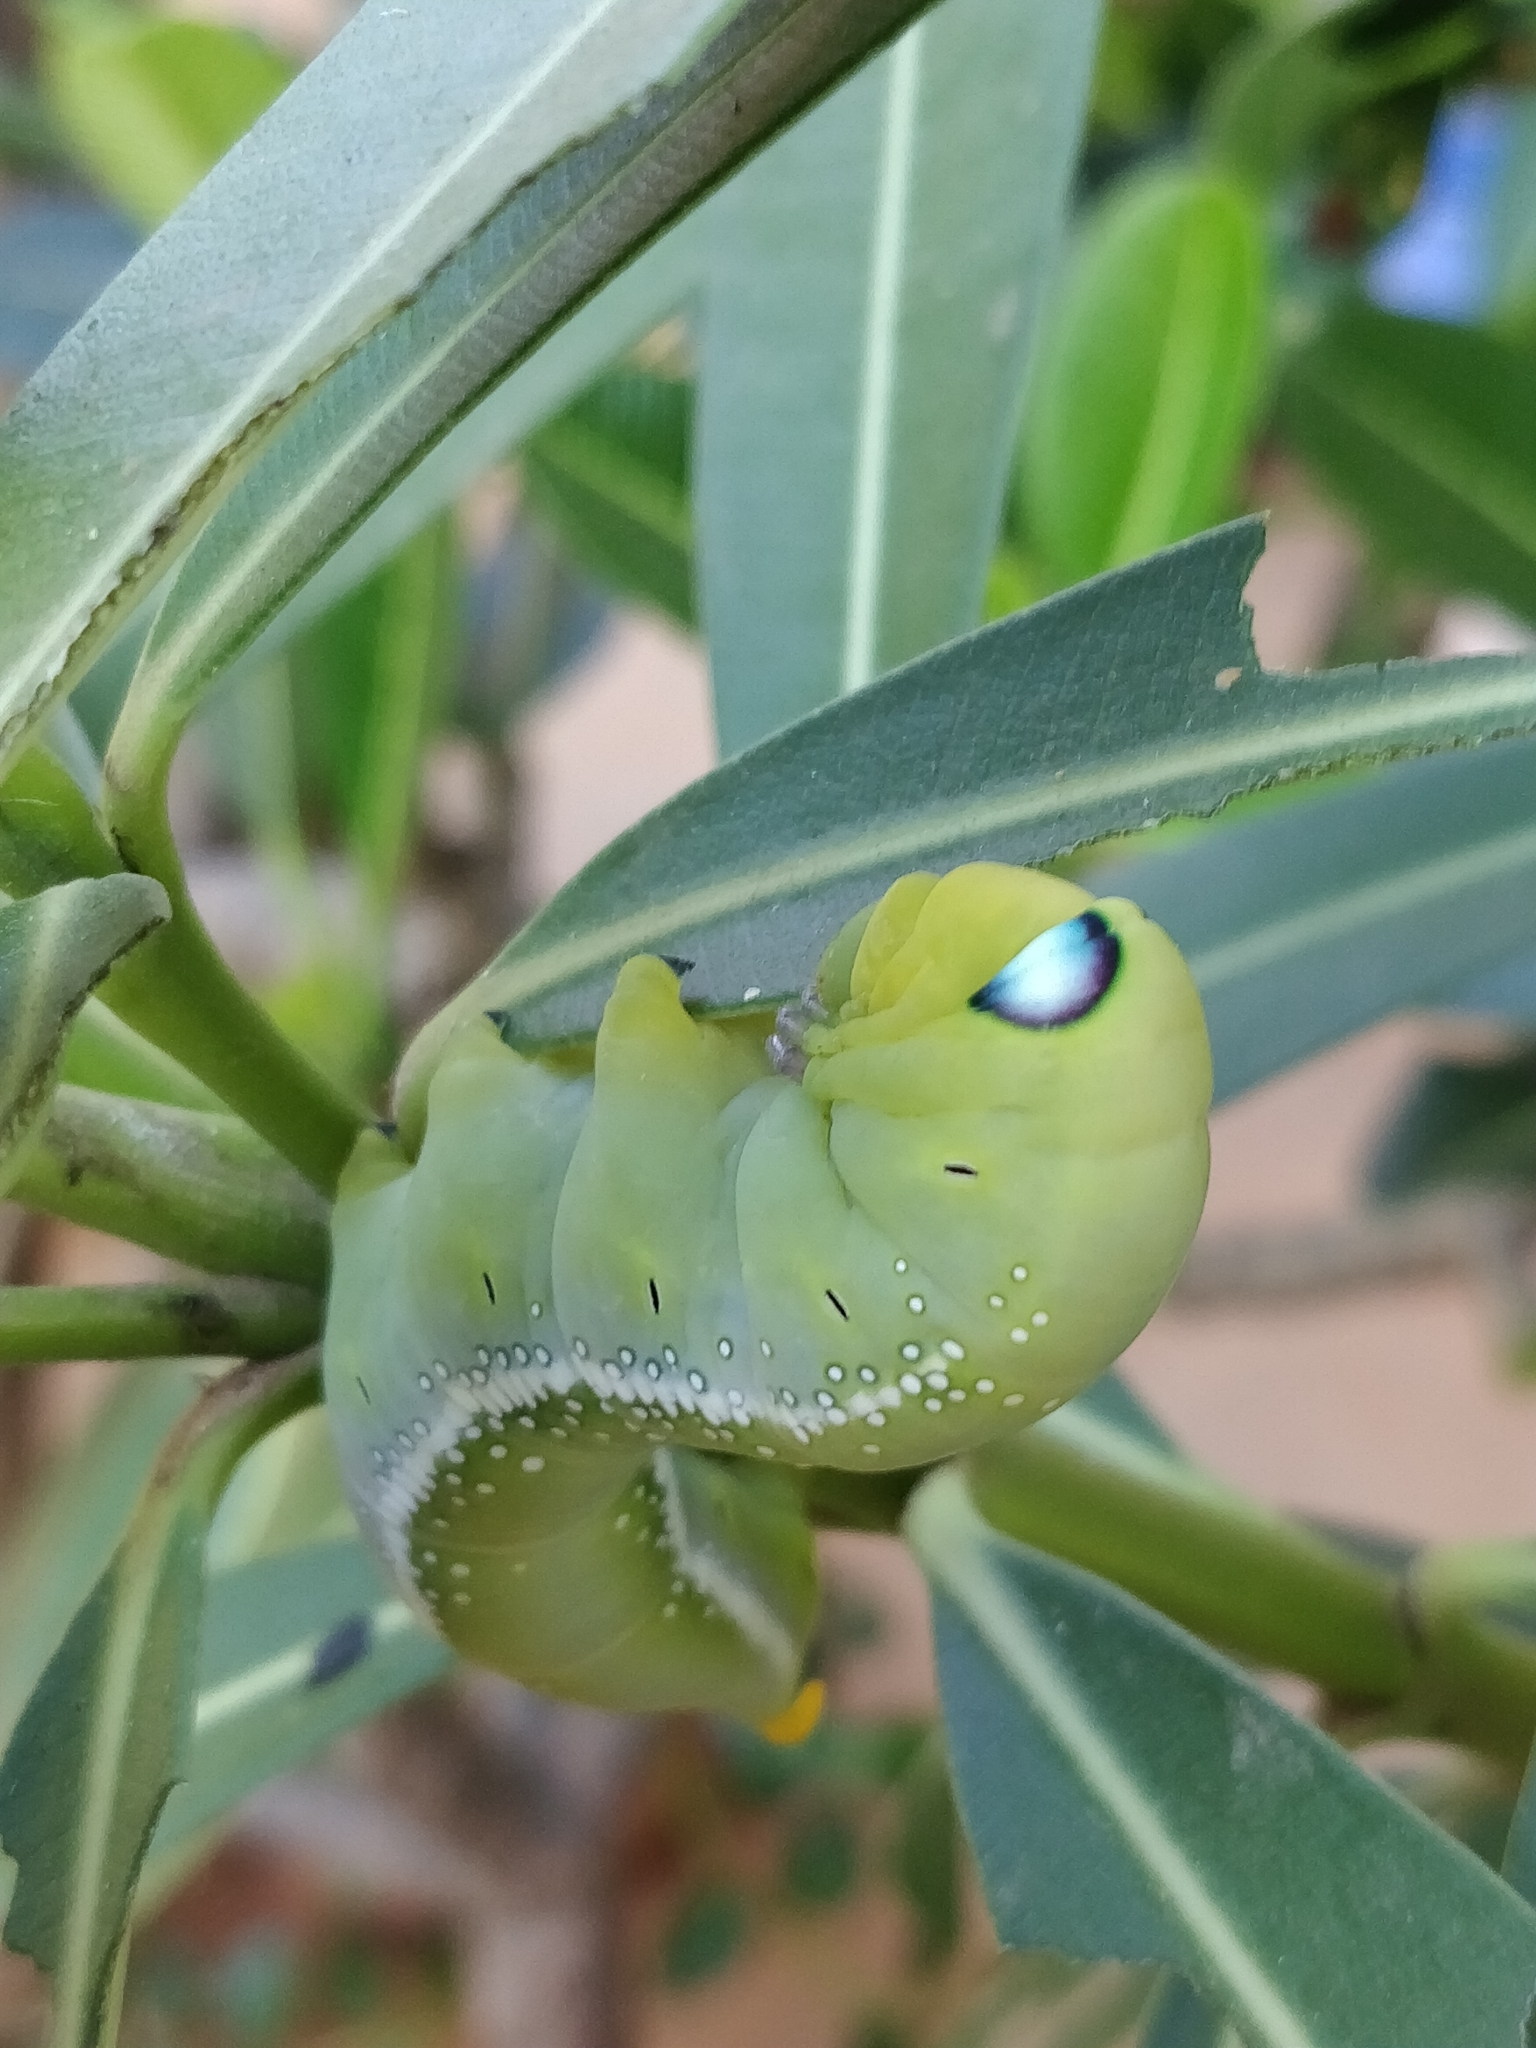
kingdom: Animalia
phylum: Arthropoda
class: Insecta
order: Lepidoptera
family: Sphingidae
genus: Daphnis
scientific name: Daphnis nerii
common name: Oleander hawk-moth
